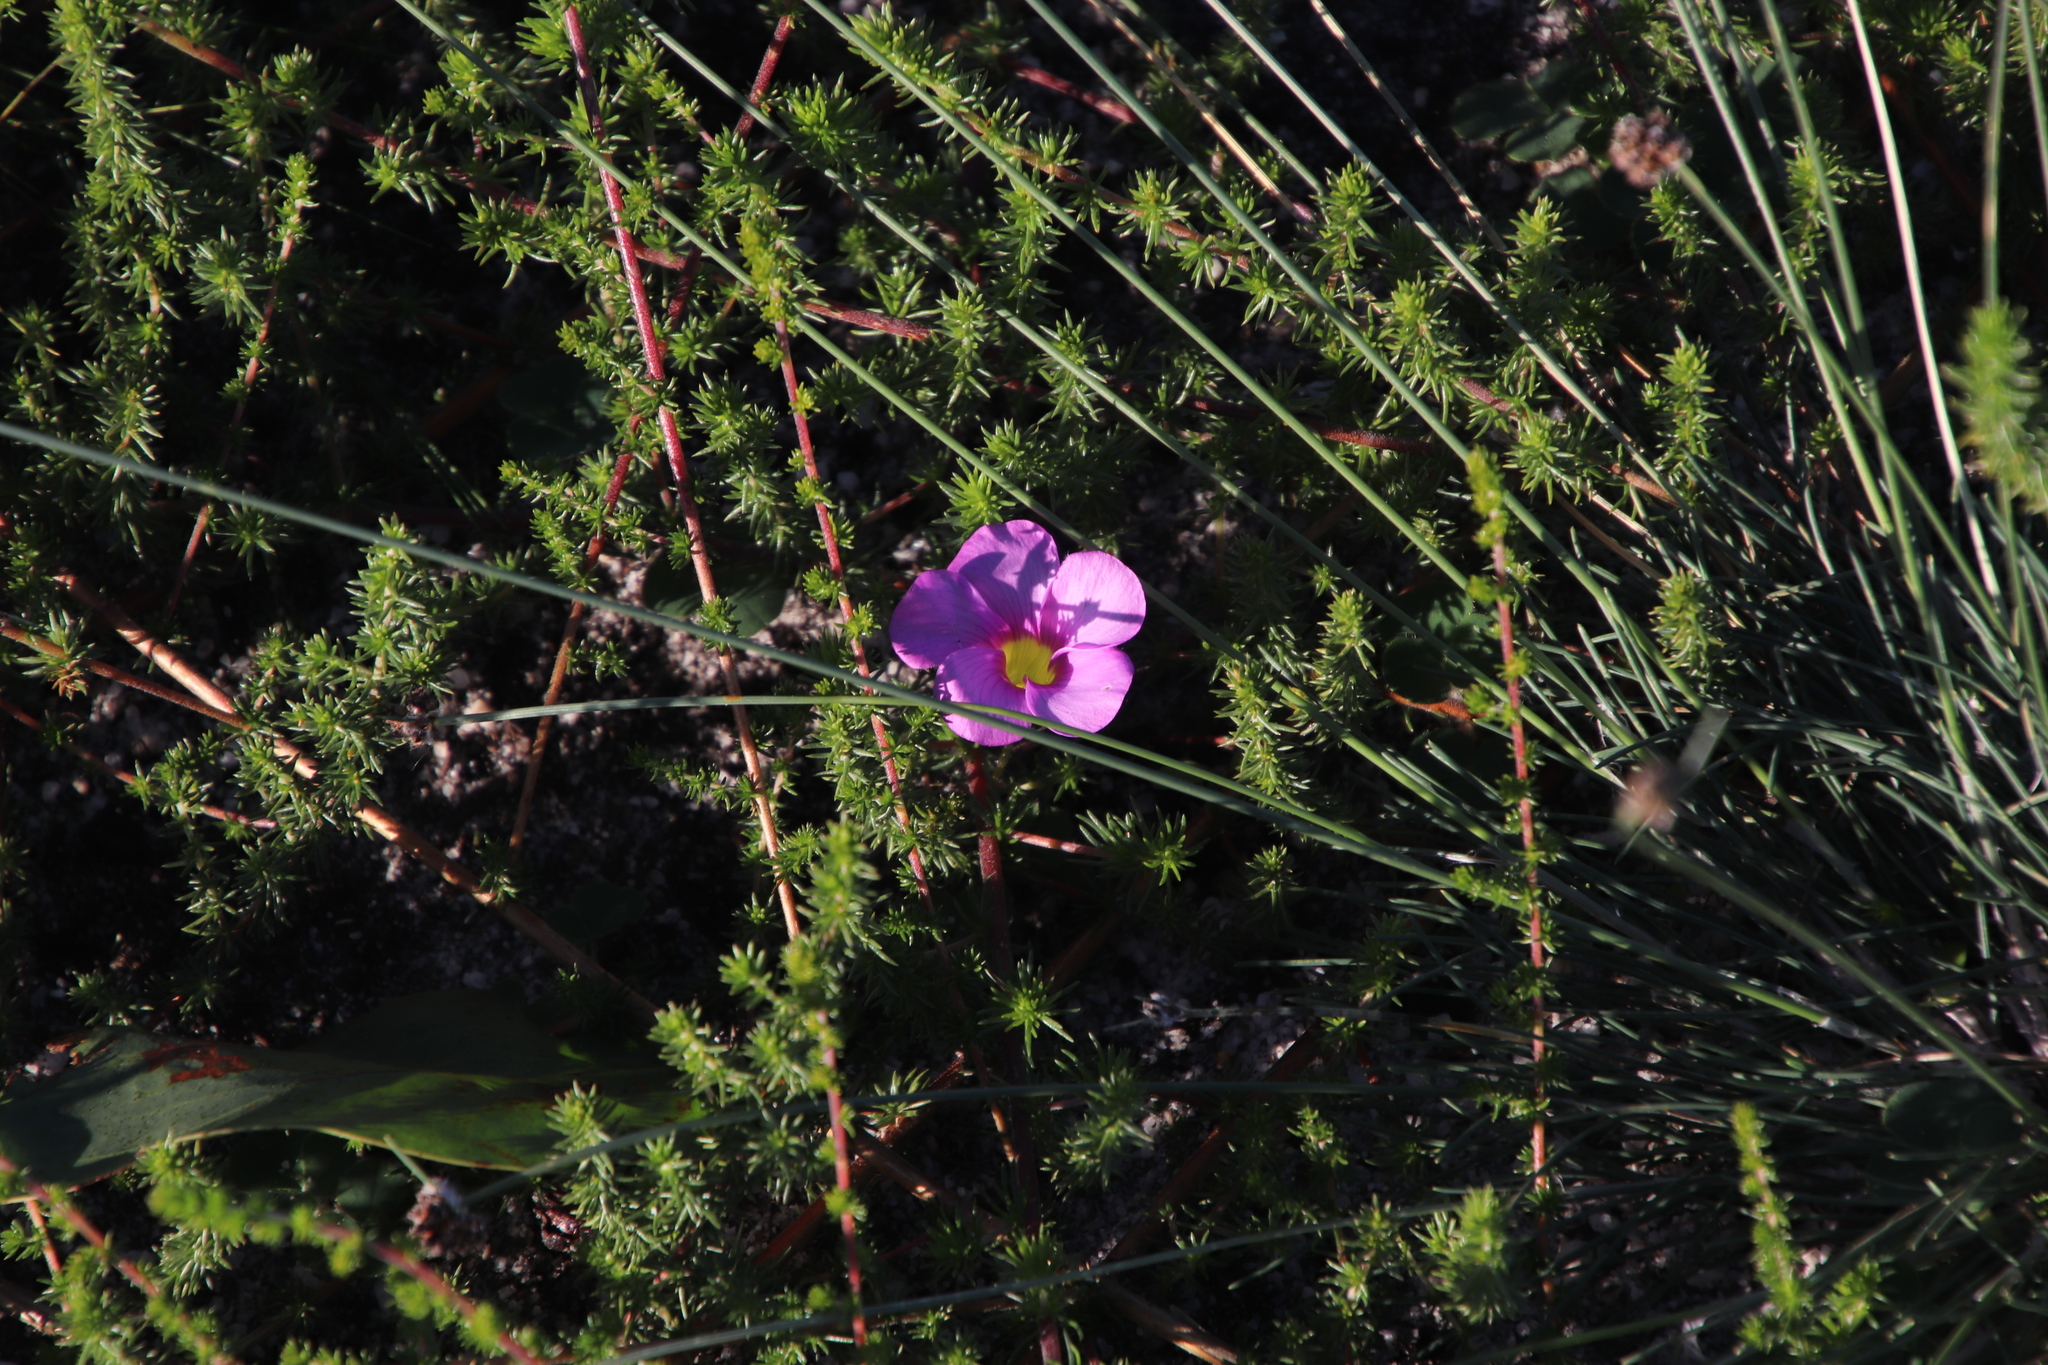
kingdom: Plantae
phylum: Tracheophyta
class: Magnoliopsida
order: Oxalidales
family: Oxalidaceae
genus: Oxalis
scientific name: Oxalis purpurea
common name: Purple woodsorrel
